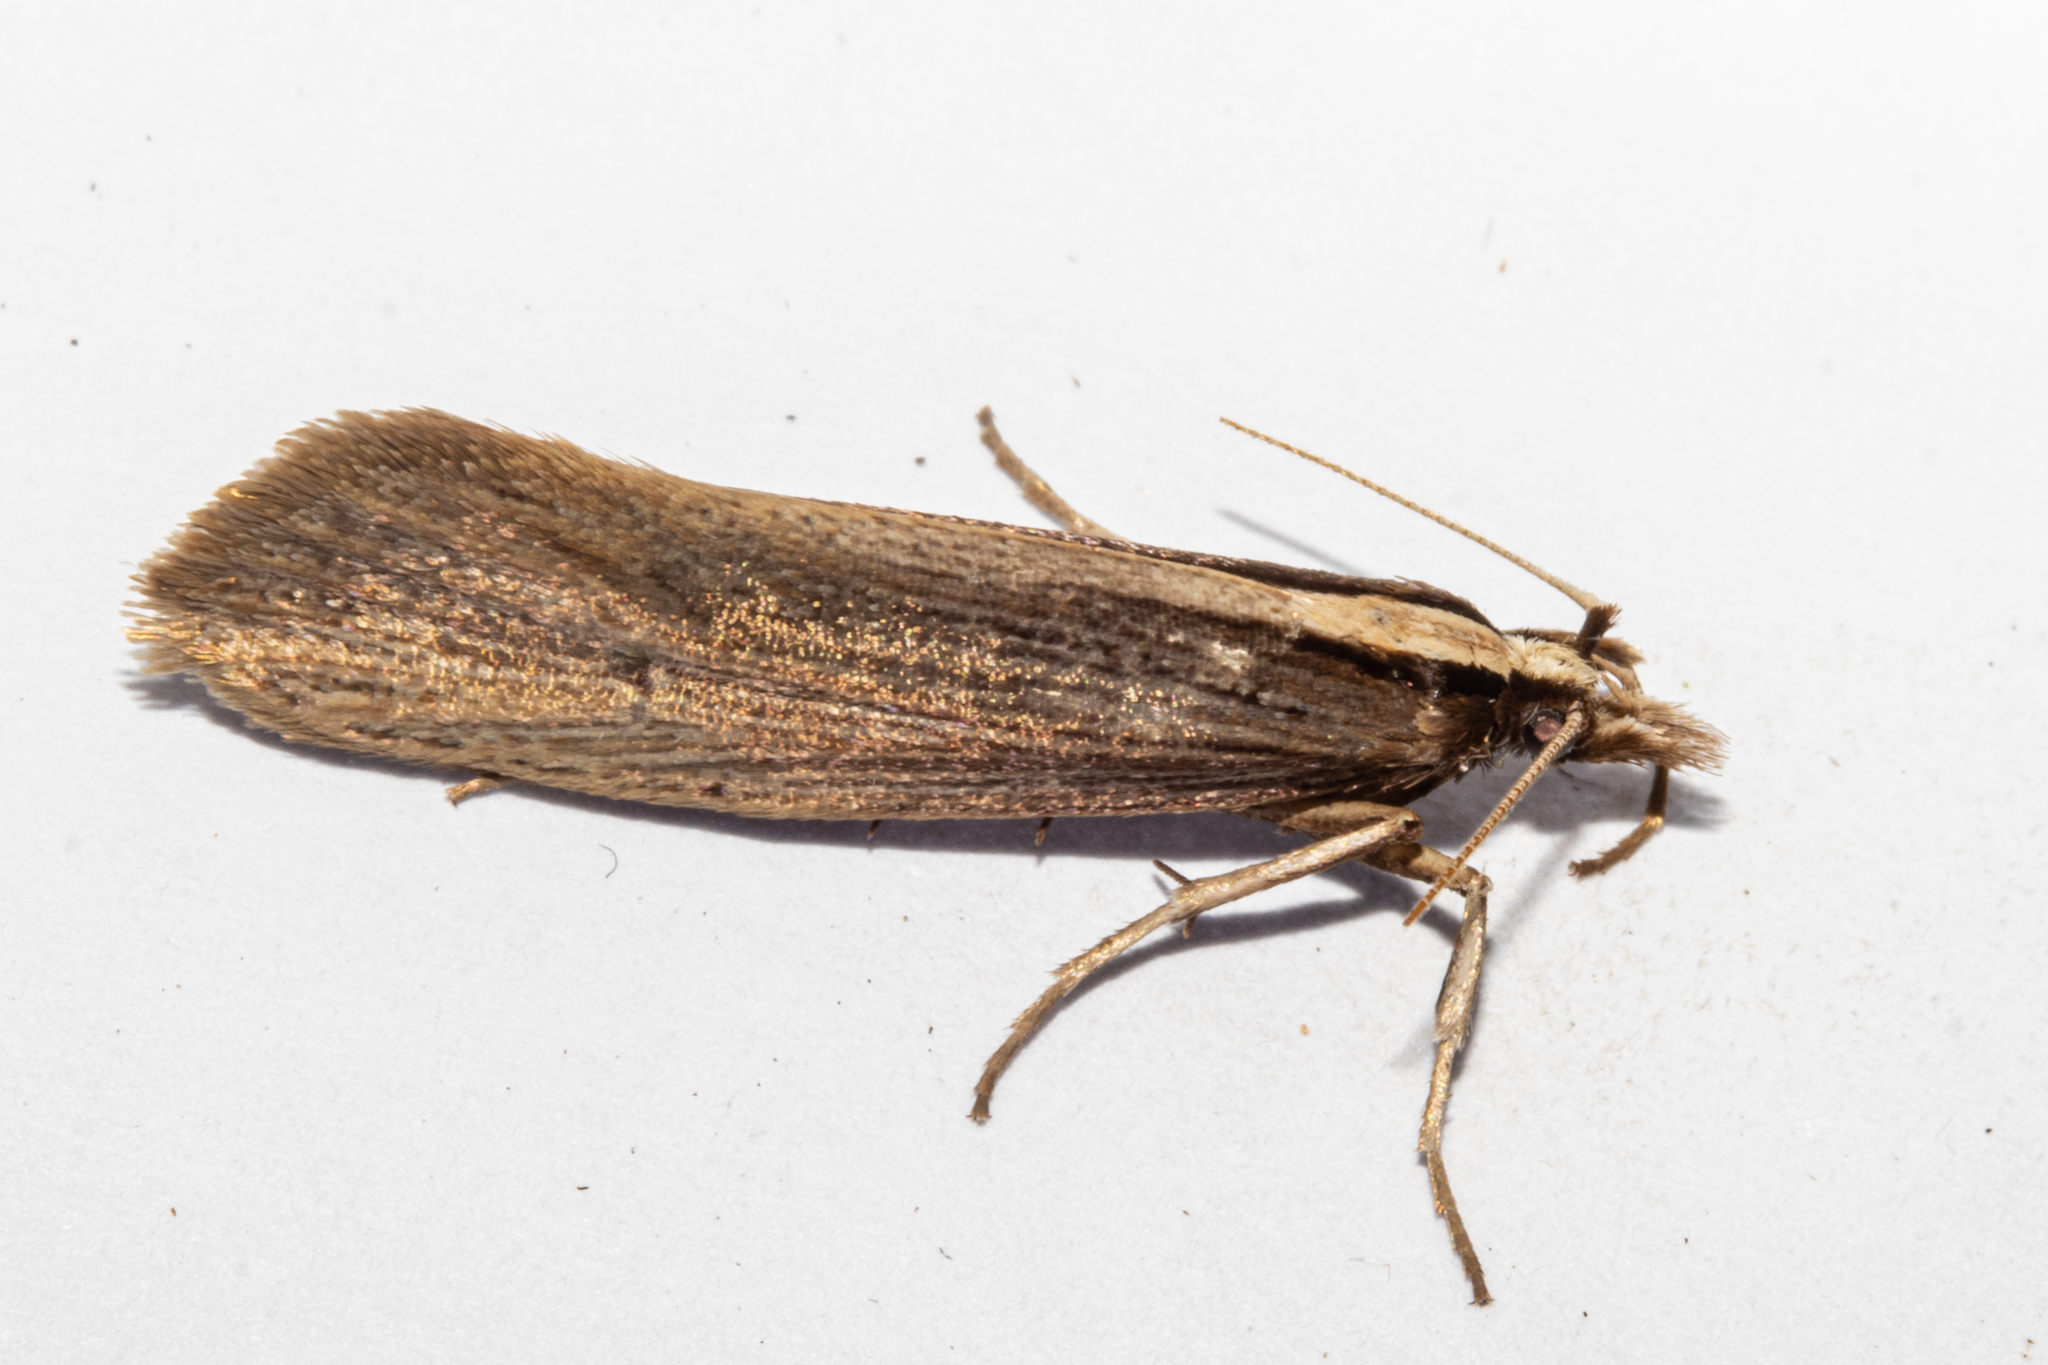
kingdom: Animalia
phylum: Arthropoda
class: Insecta
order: Lepidoptera
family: Plutellidae
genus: Proditrix
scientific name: Proditrix megalynta
